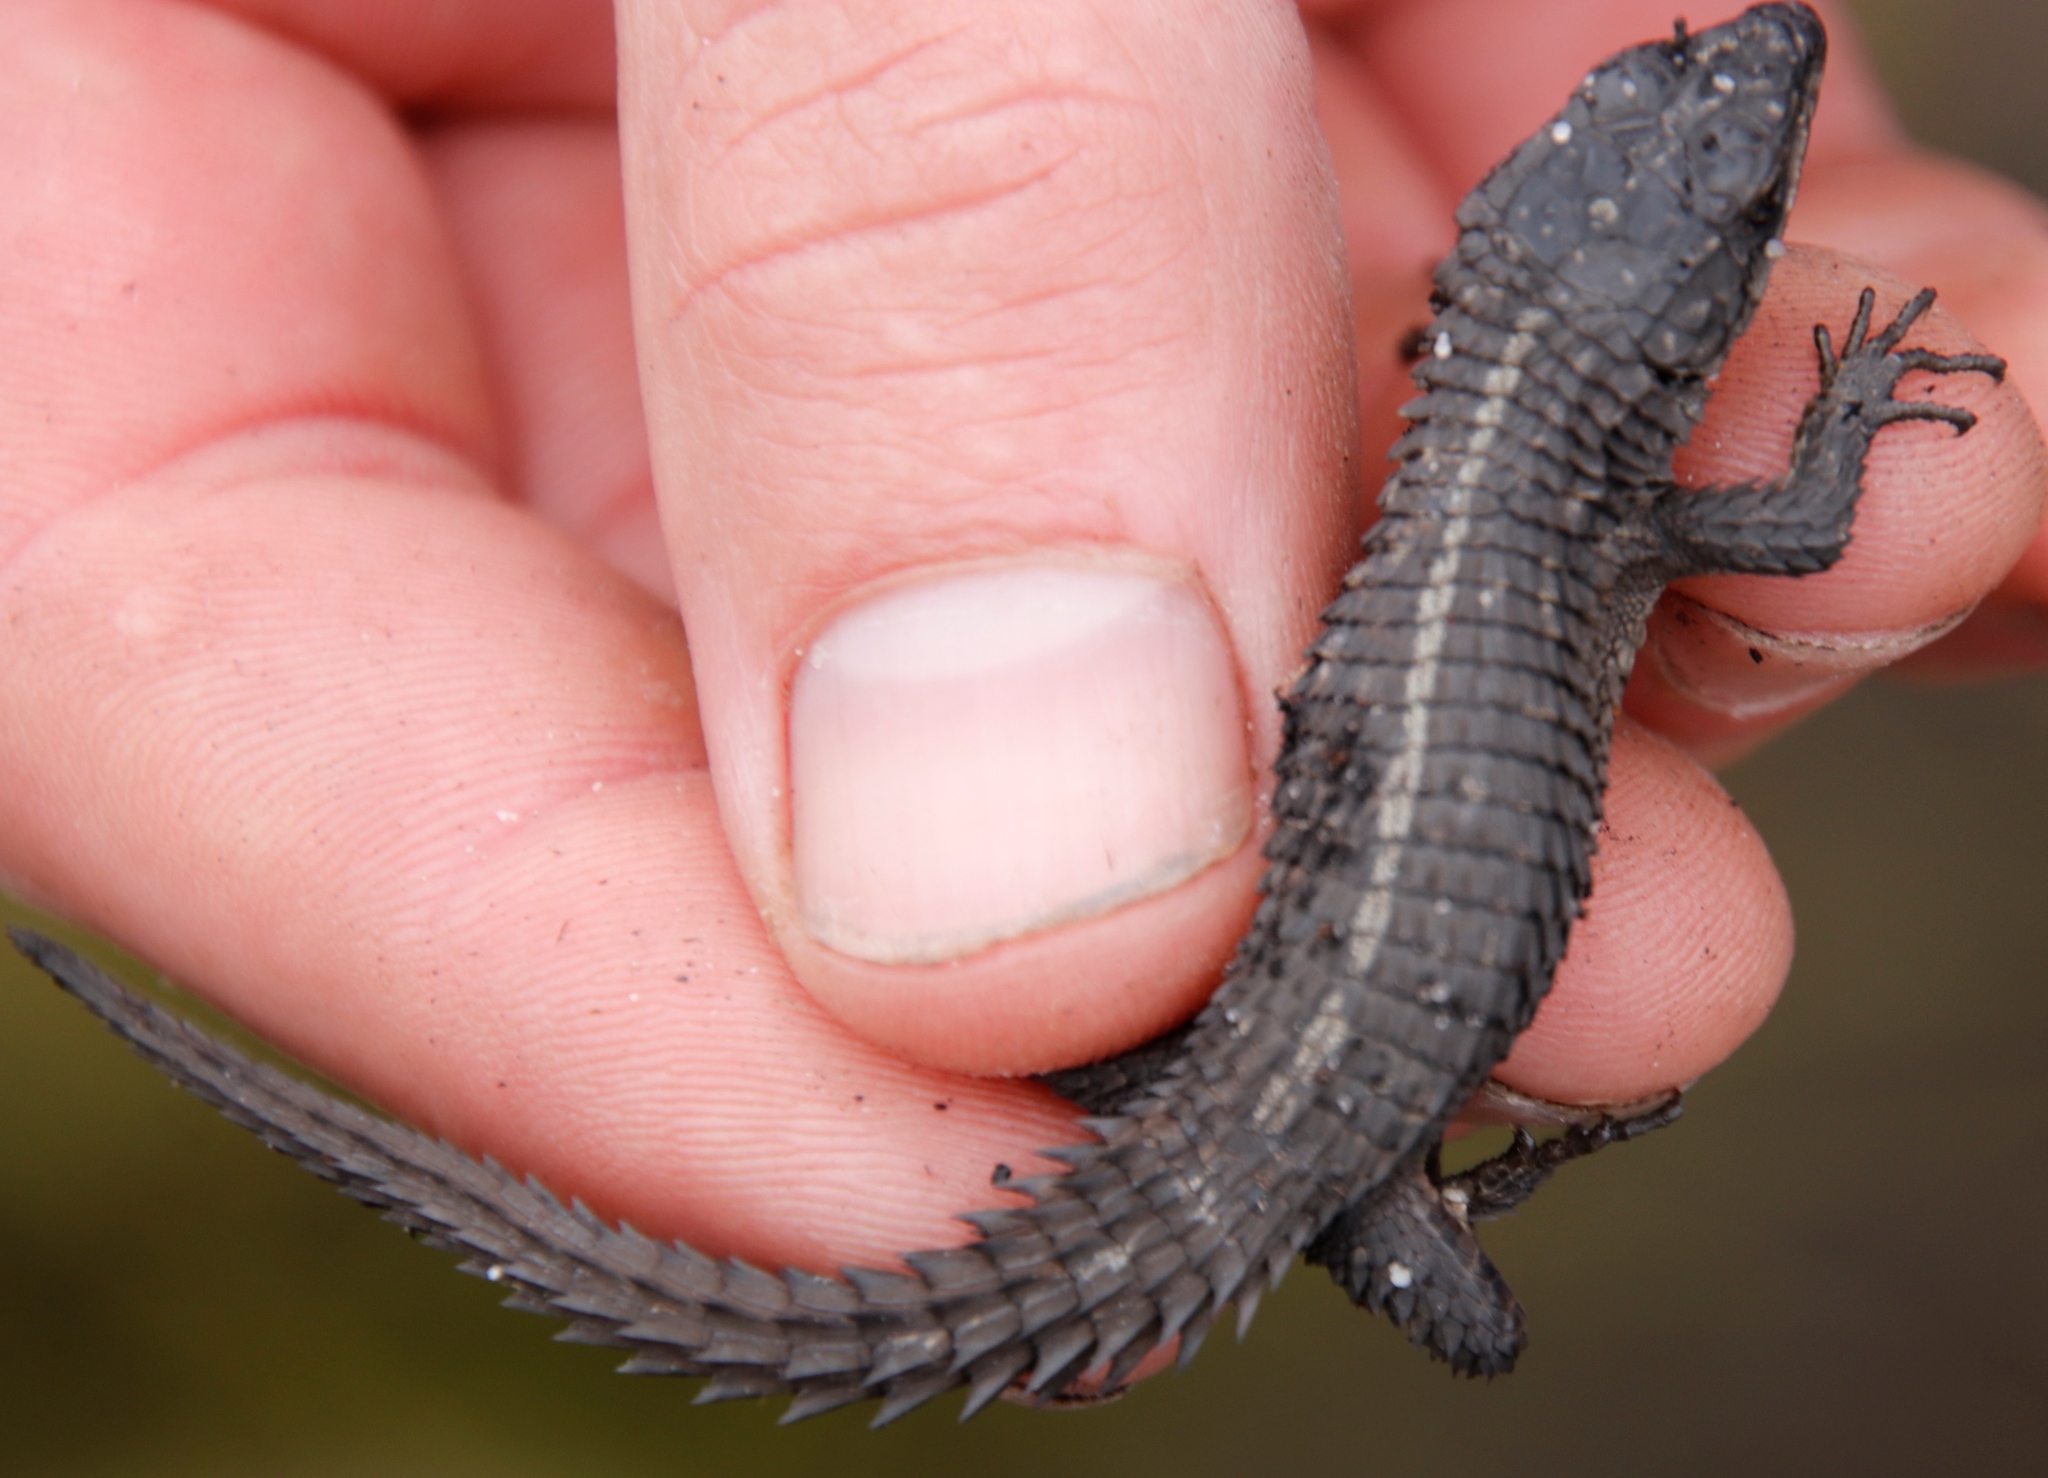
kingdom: Animalia
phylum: Chordata
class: Squamata
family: Cordylidae
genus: Cordylus
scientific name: Cordylus oelofseni
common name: Oelofsen's girdled lizard
